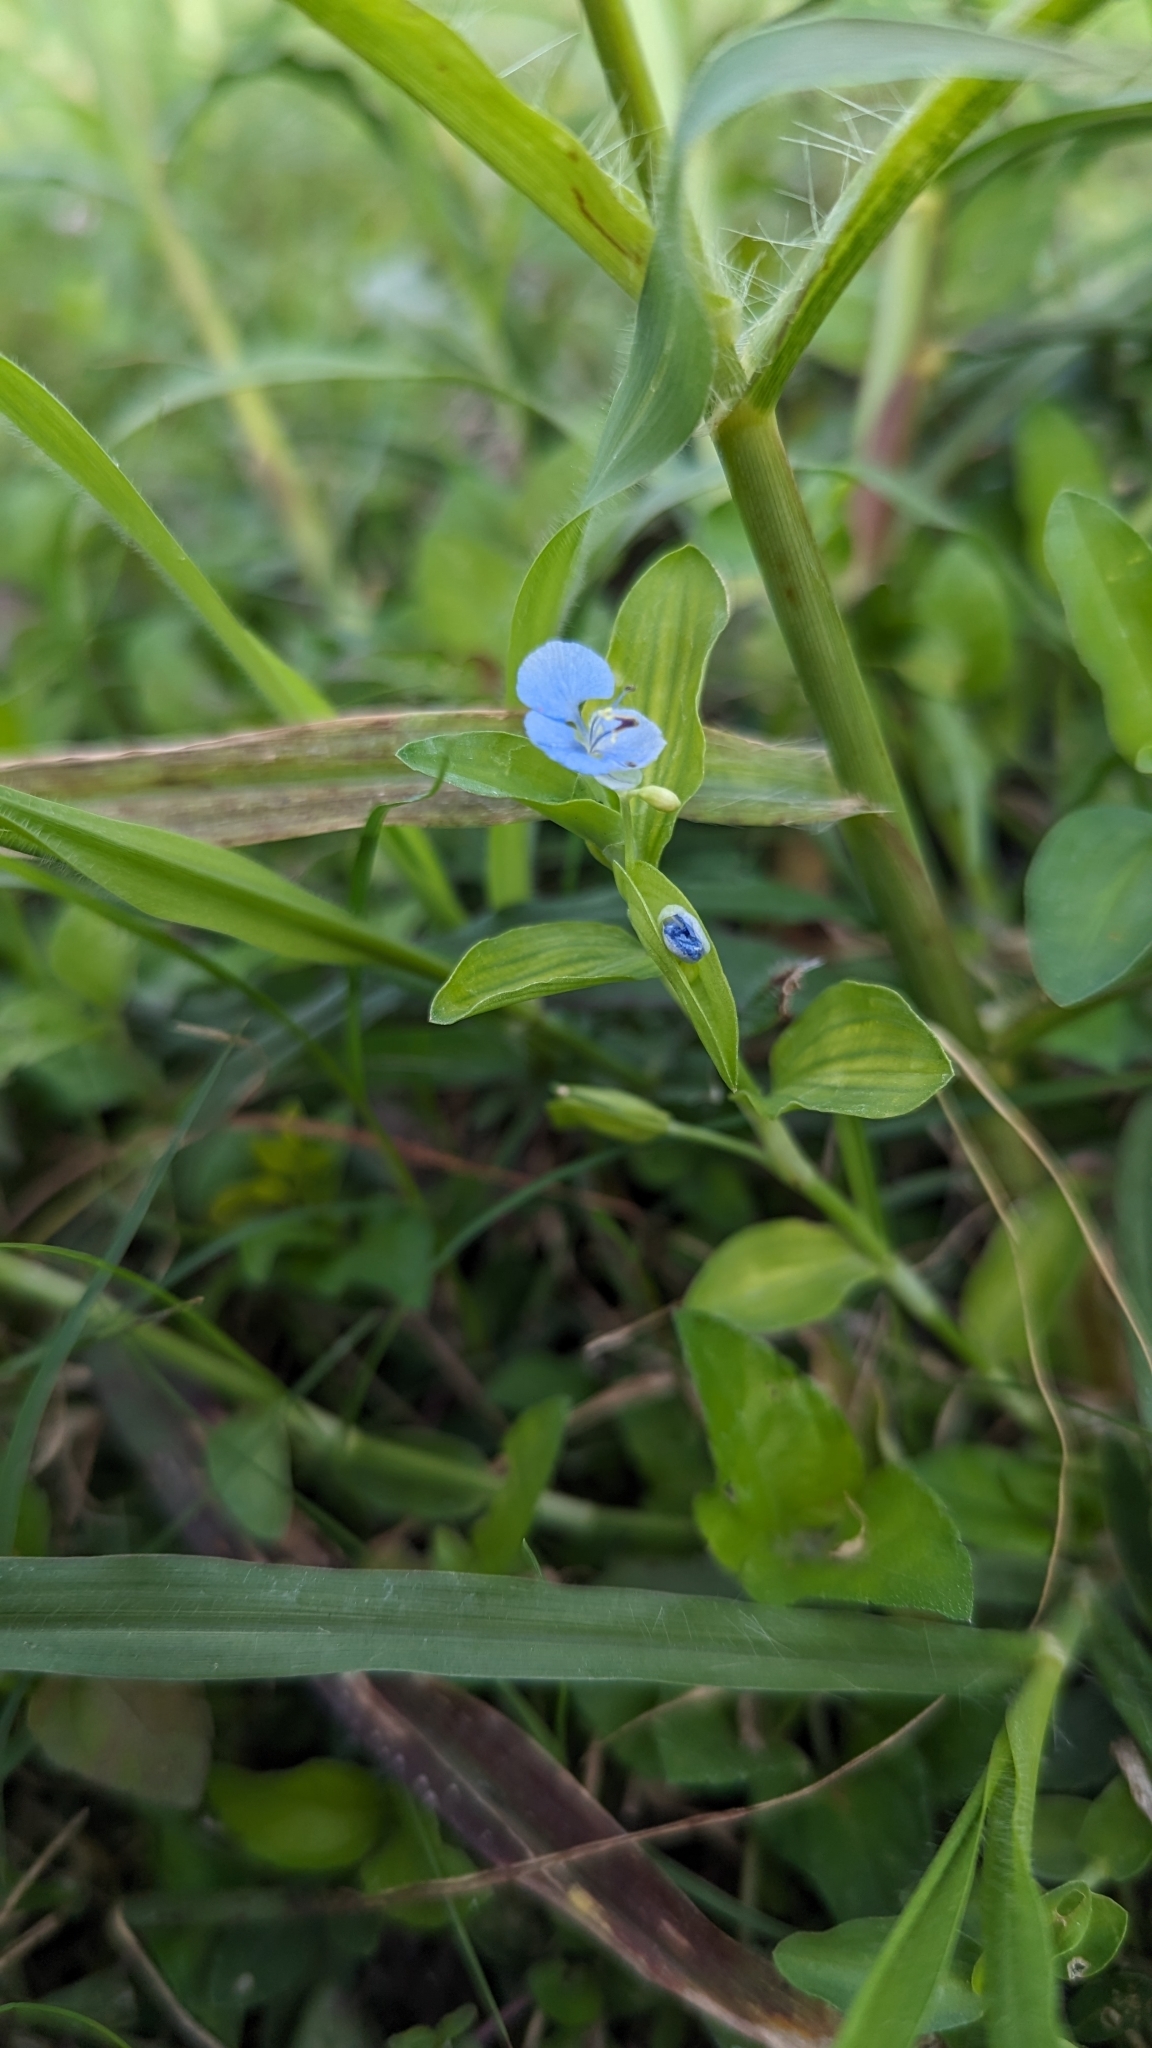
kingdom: Plantae
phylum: Tracheophyta
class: Liliopsida
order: Commelinales
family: Commelinaceae
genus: Commelina
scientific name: Commelina diffusa
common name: Climbing dayflower
